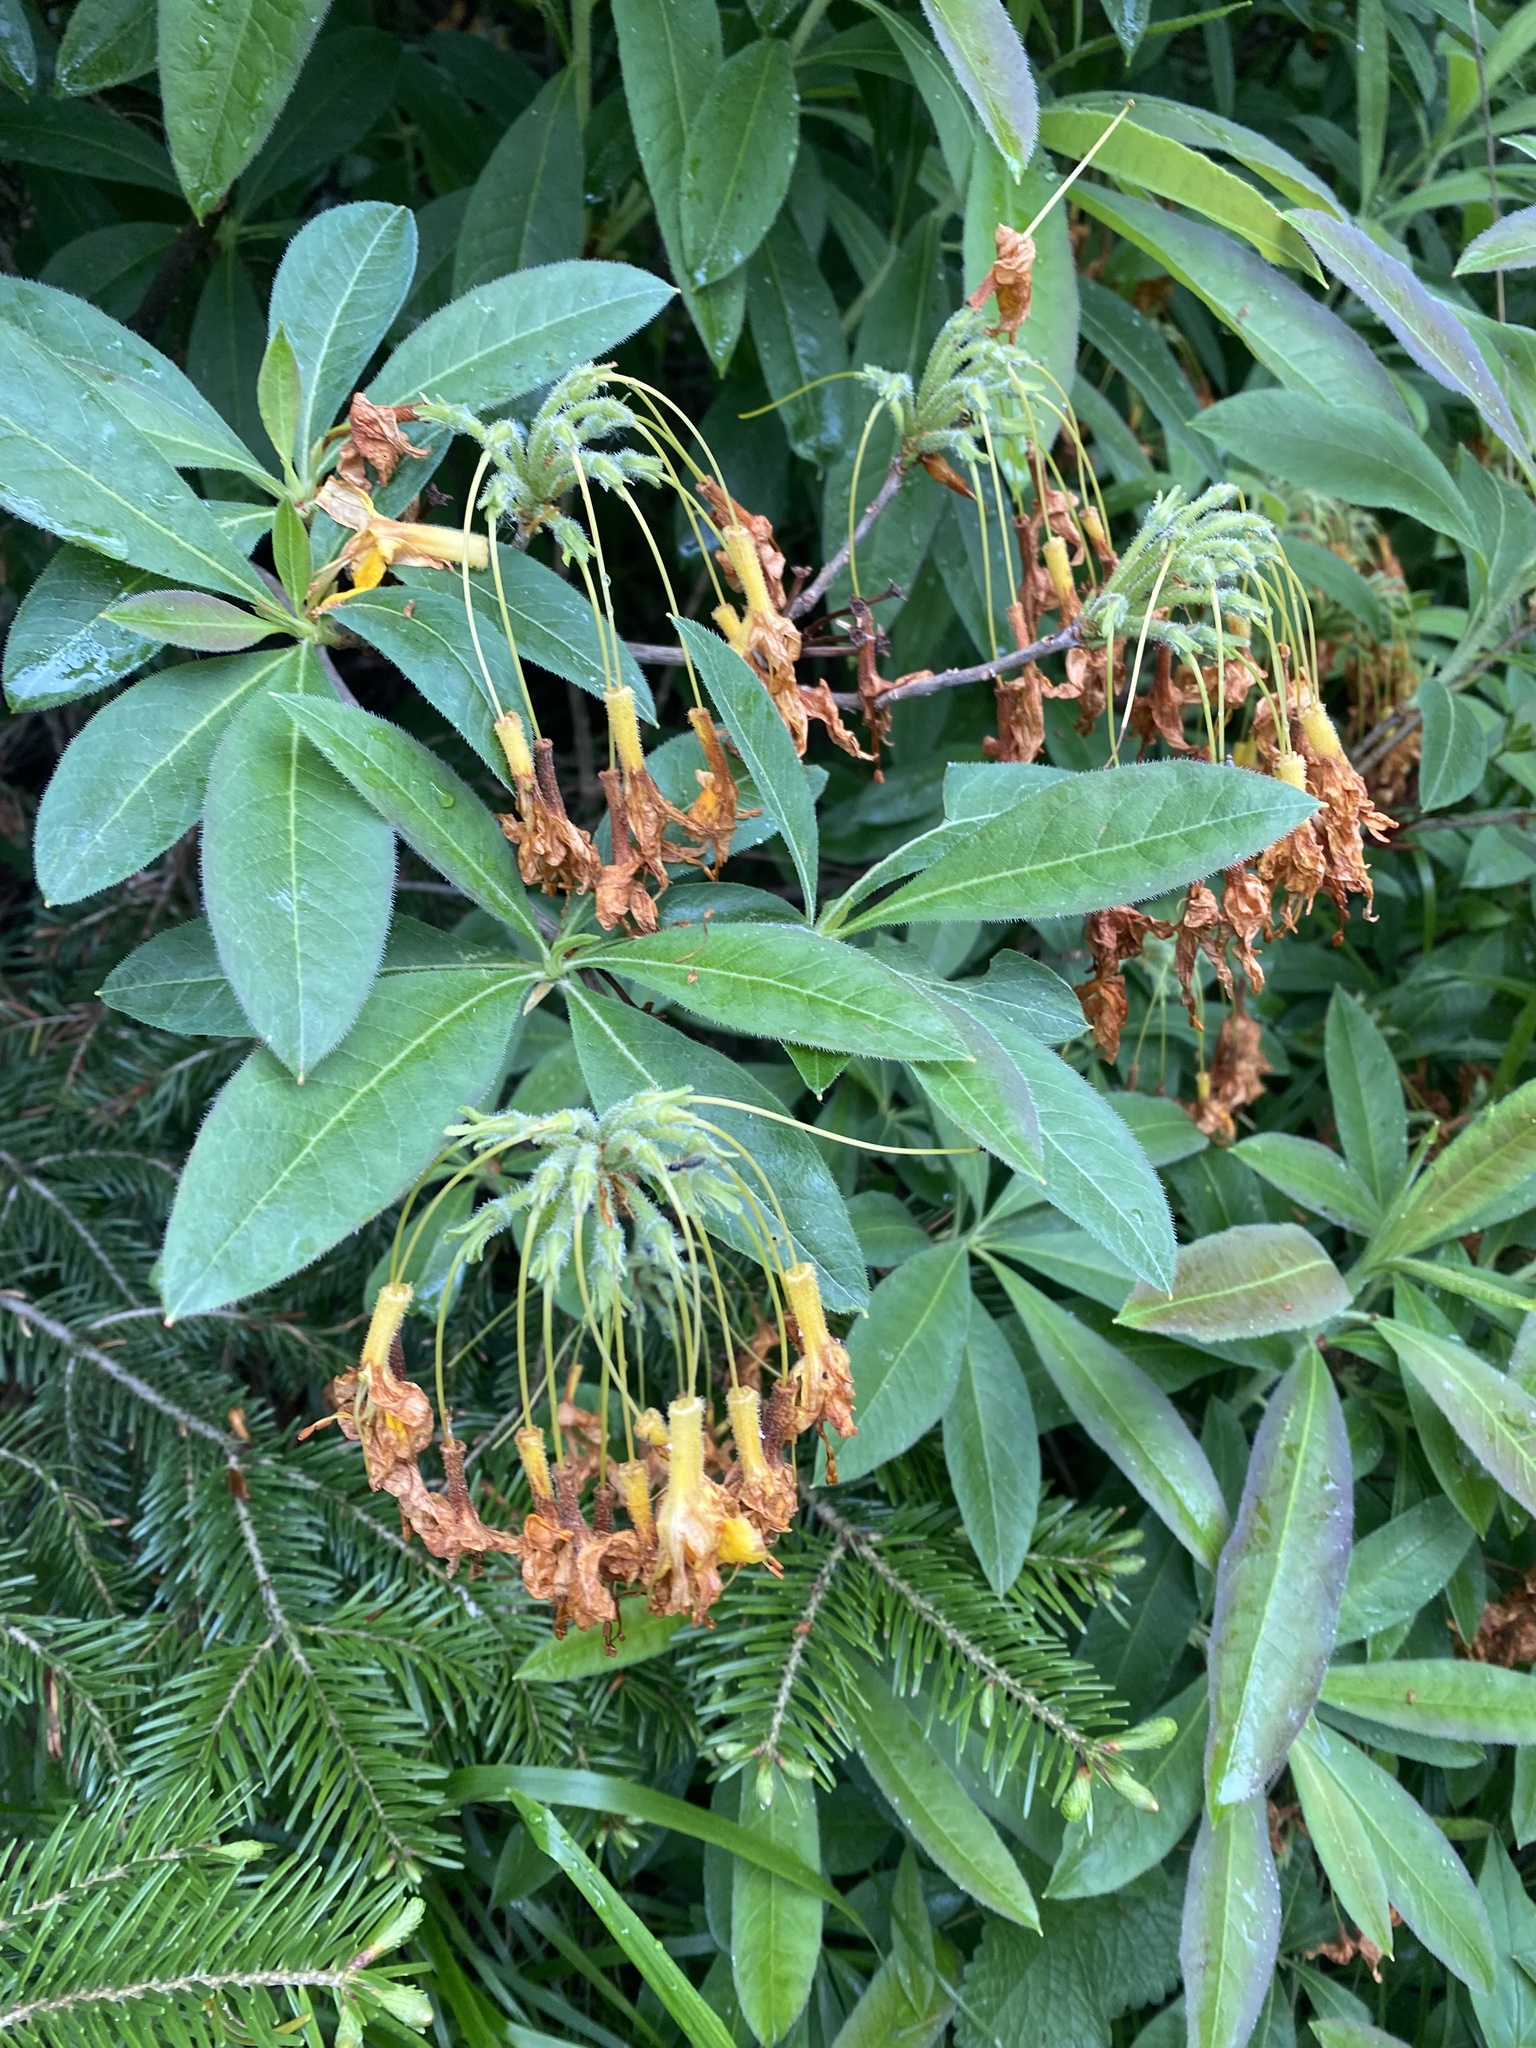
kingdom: Plantae
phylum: Tracheophyta
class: Magnoliopsida
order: Ericales
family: Ericaceae
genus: Rhododendron
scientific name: Rhododendron luteum
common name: Yellow azalea
